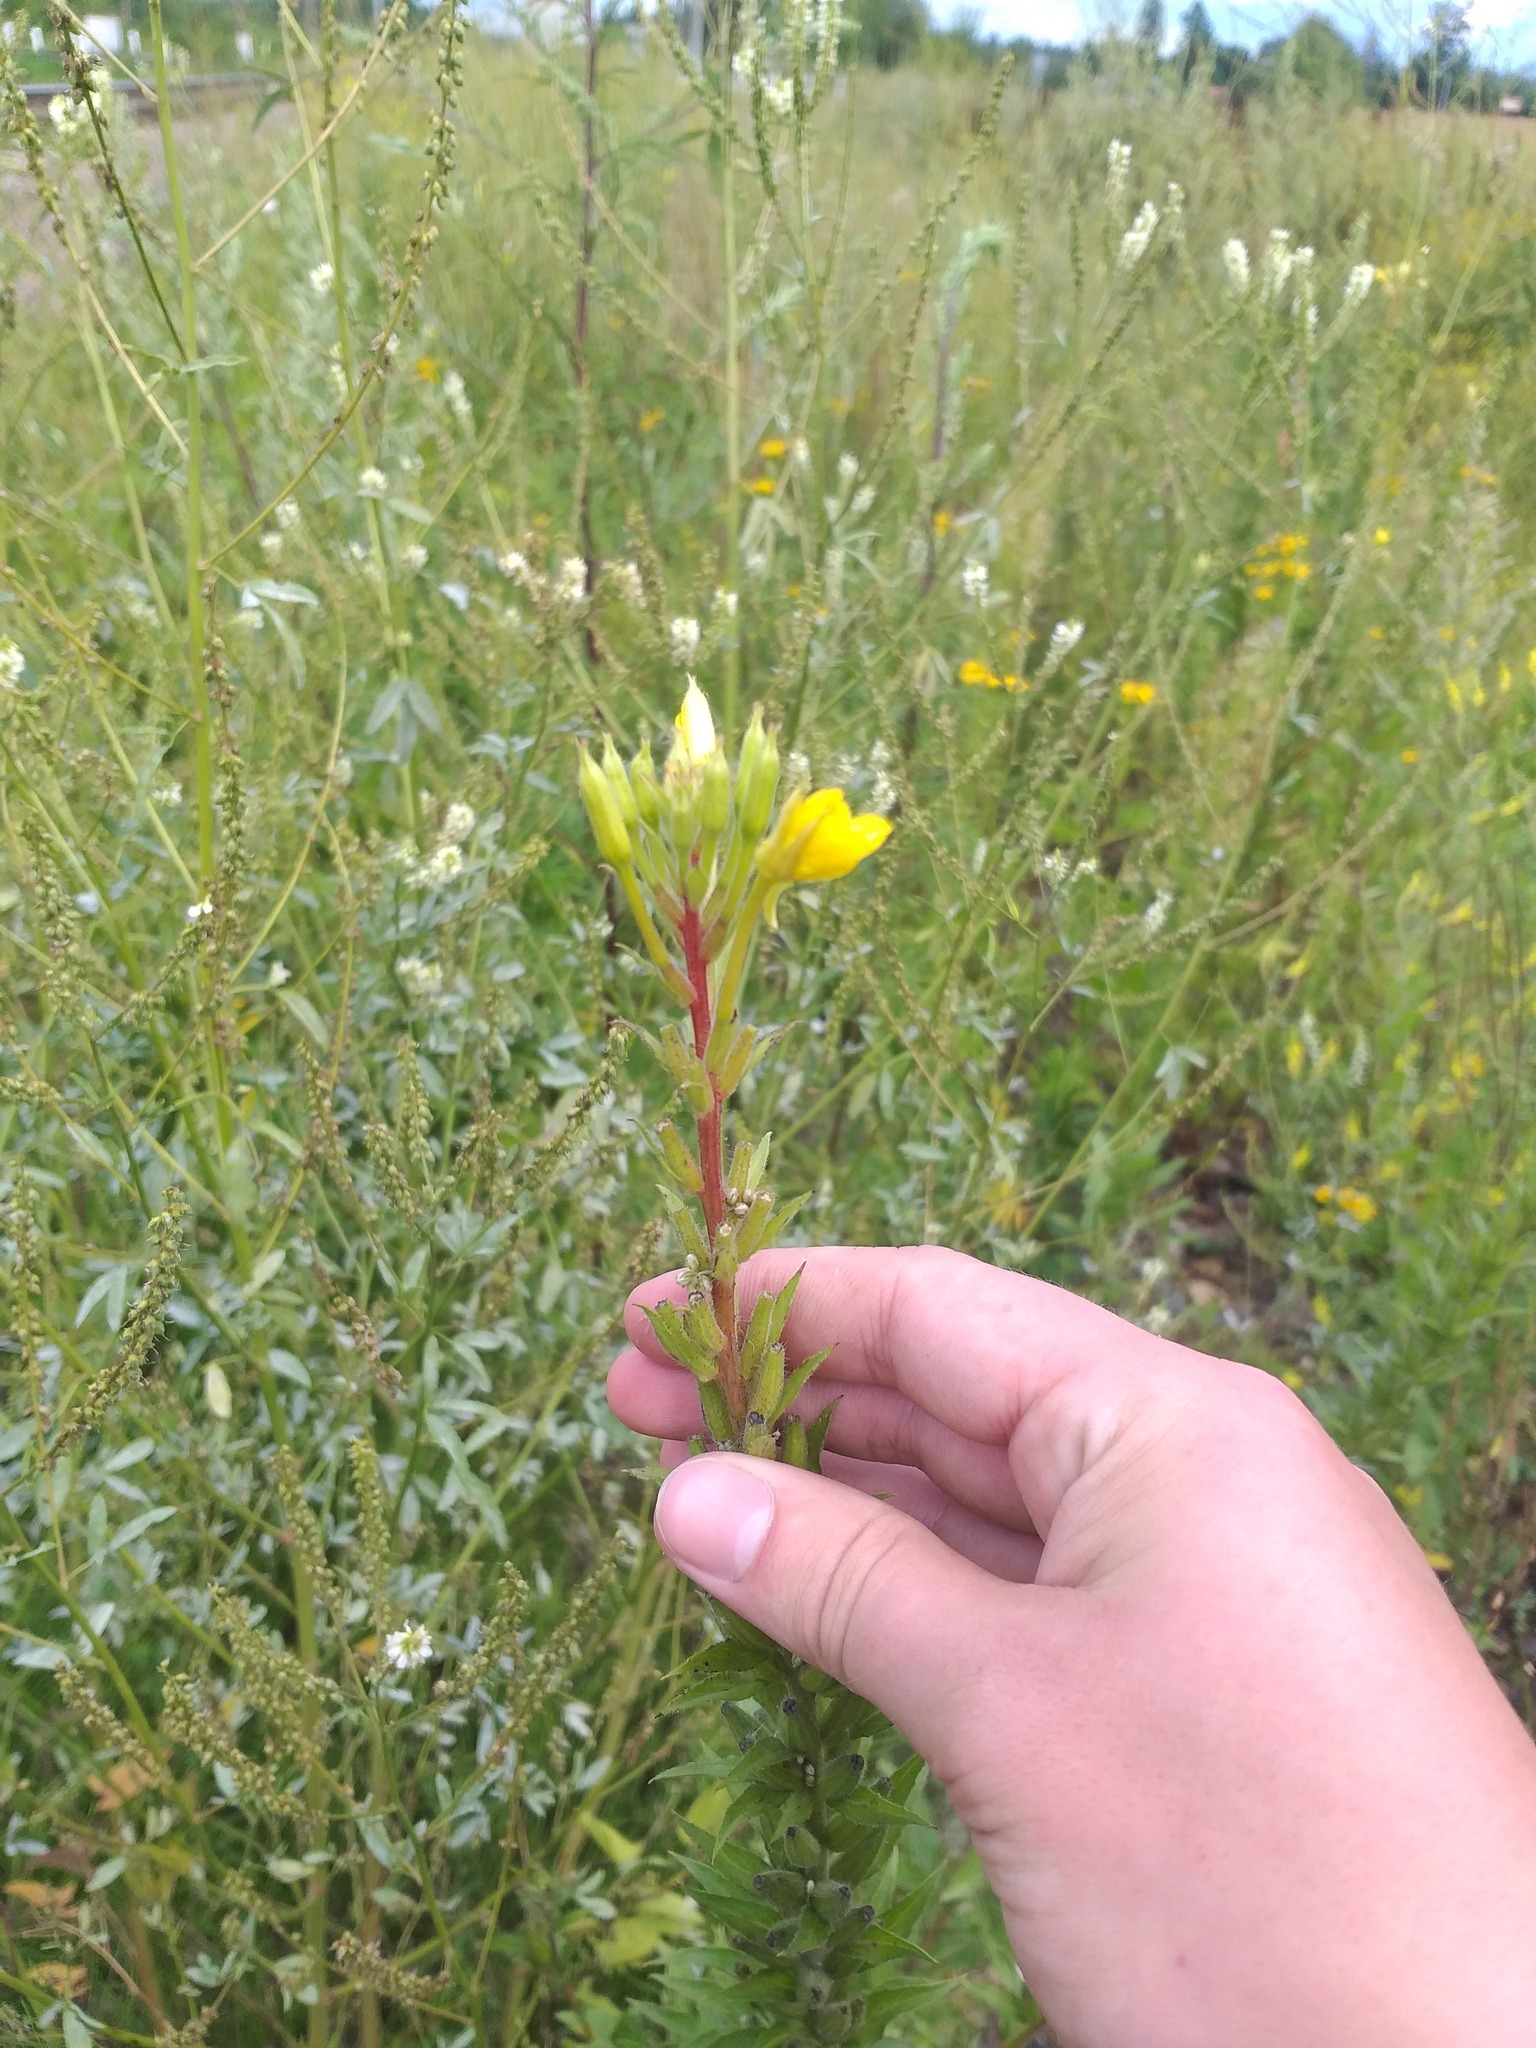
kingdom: Plantae
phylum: Tracheophyta
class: Magnoliopsida
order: Myrtales
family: Onagraceae
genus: Oenothera
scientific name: Oenothera rubricaulis
